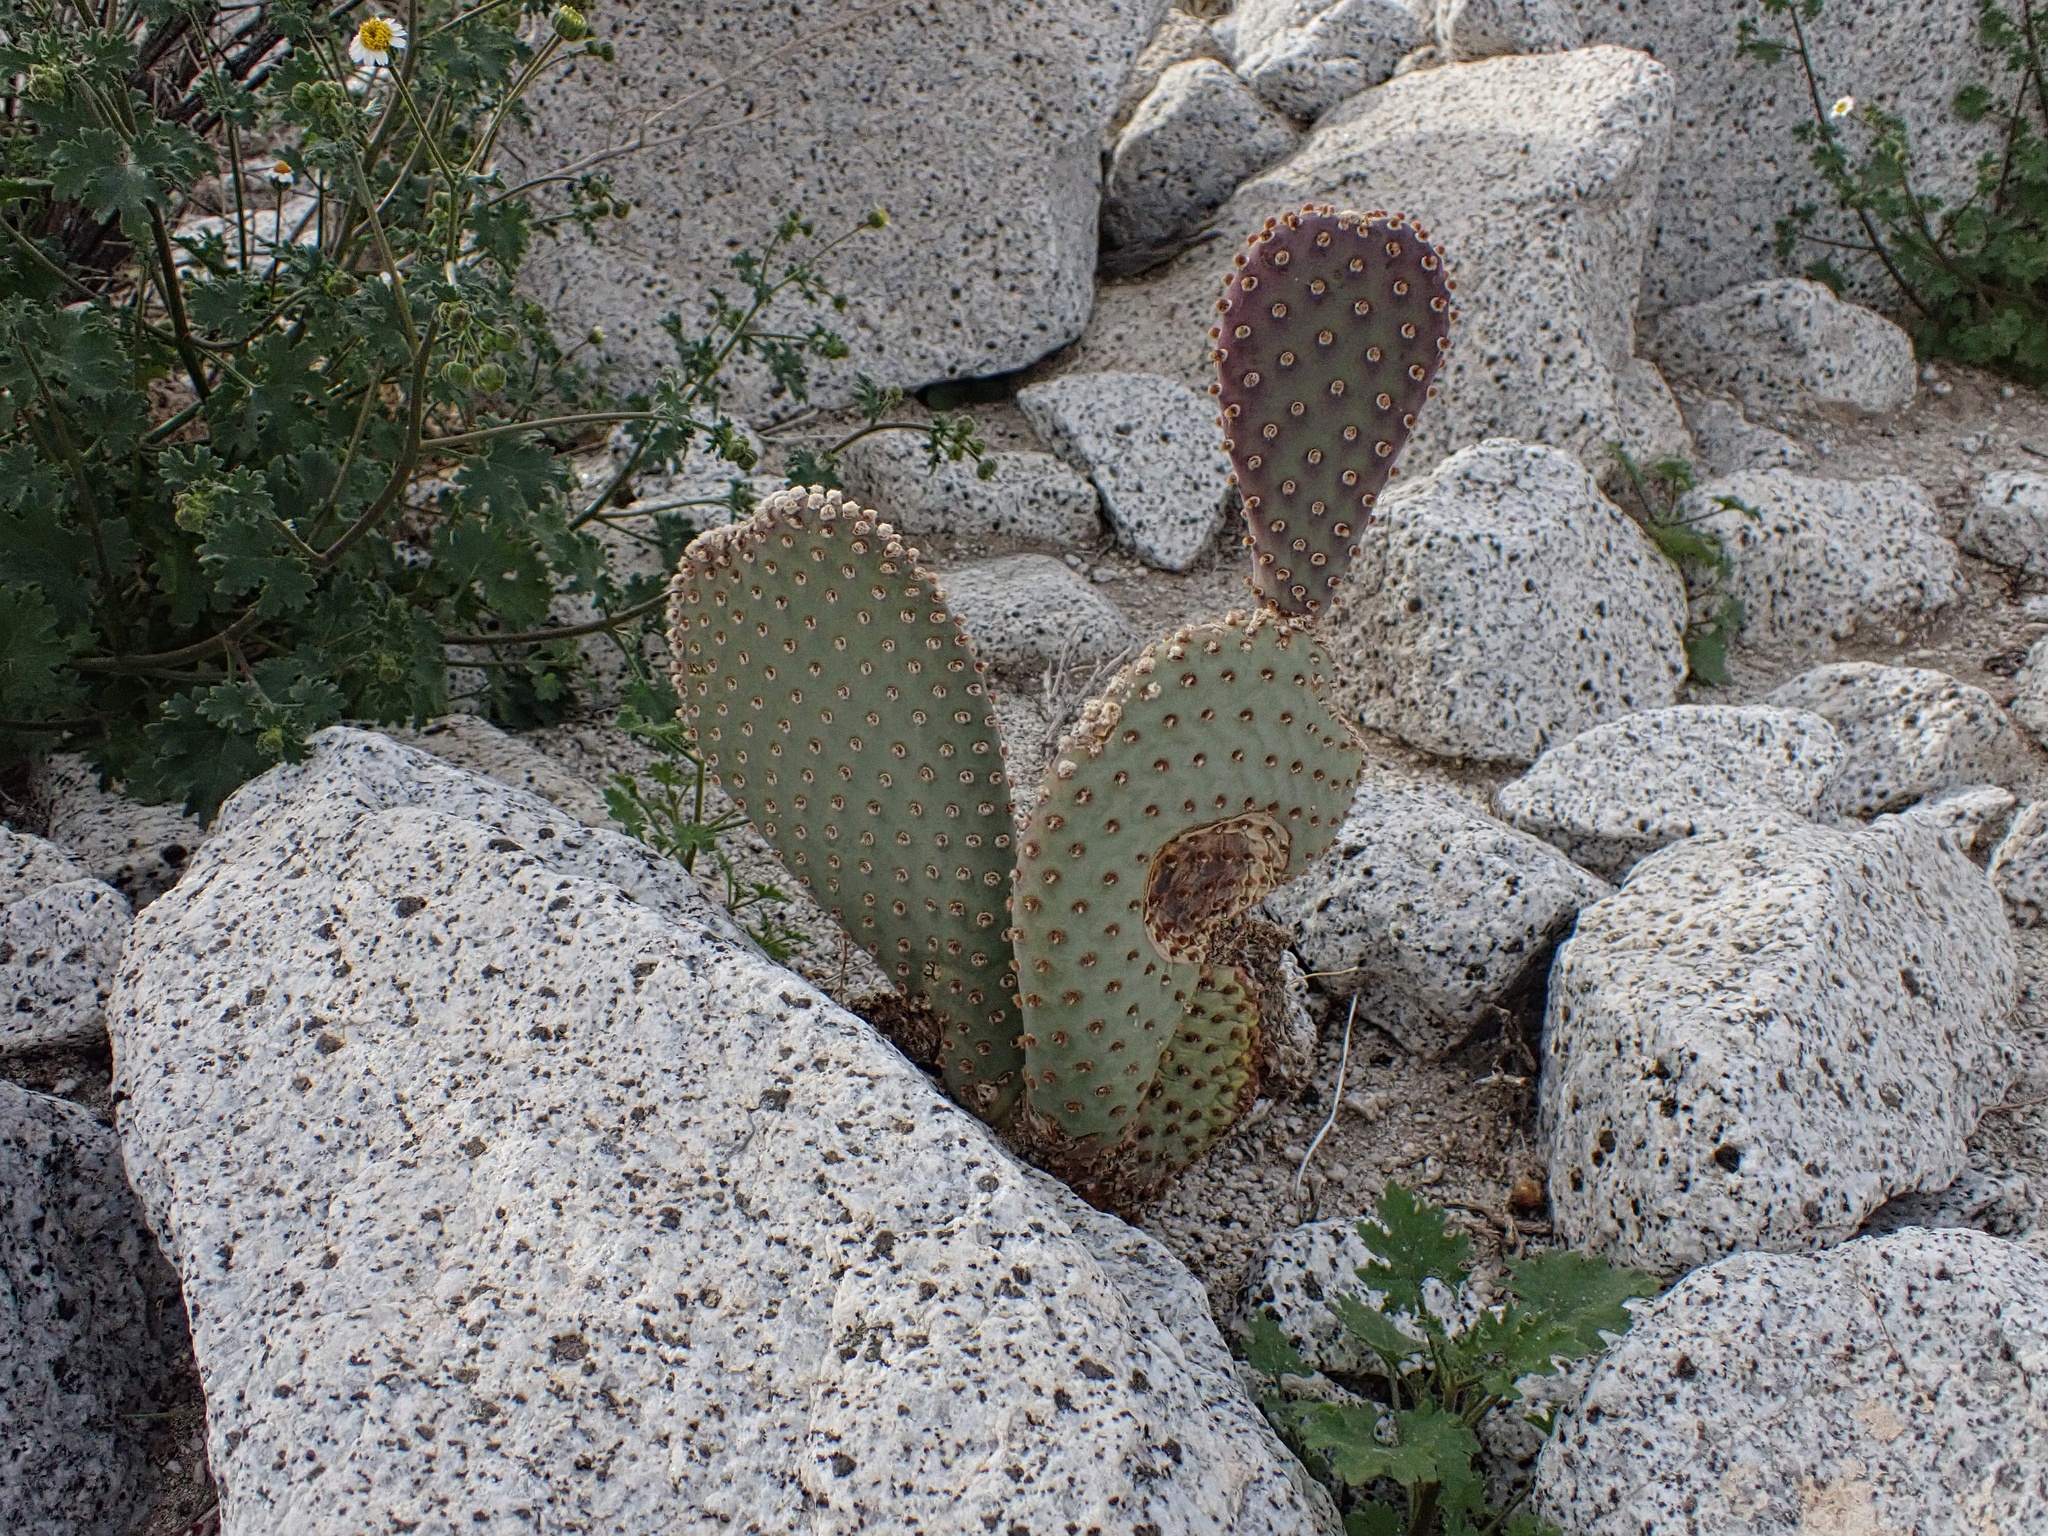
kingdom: Plantae
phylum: Tracheophyta
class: Magnoliopsida
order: Caryophyllales
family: Cactaceae
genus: Opuntia
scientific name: Opuntia basilaris
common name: Beavertail prickly-pear
